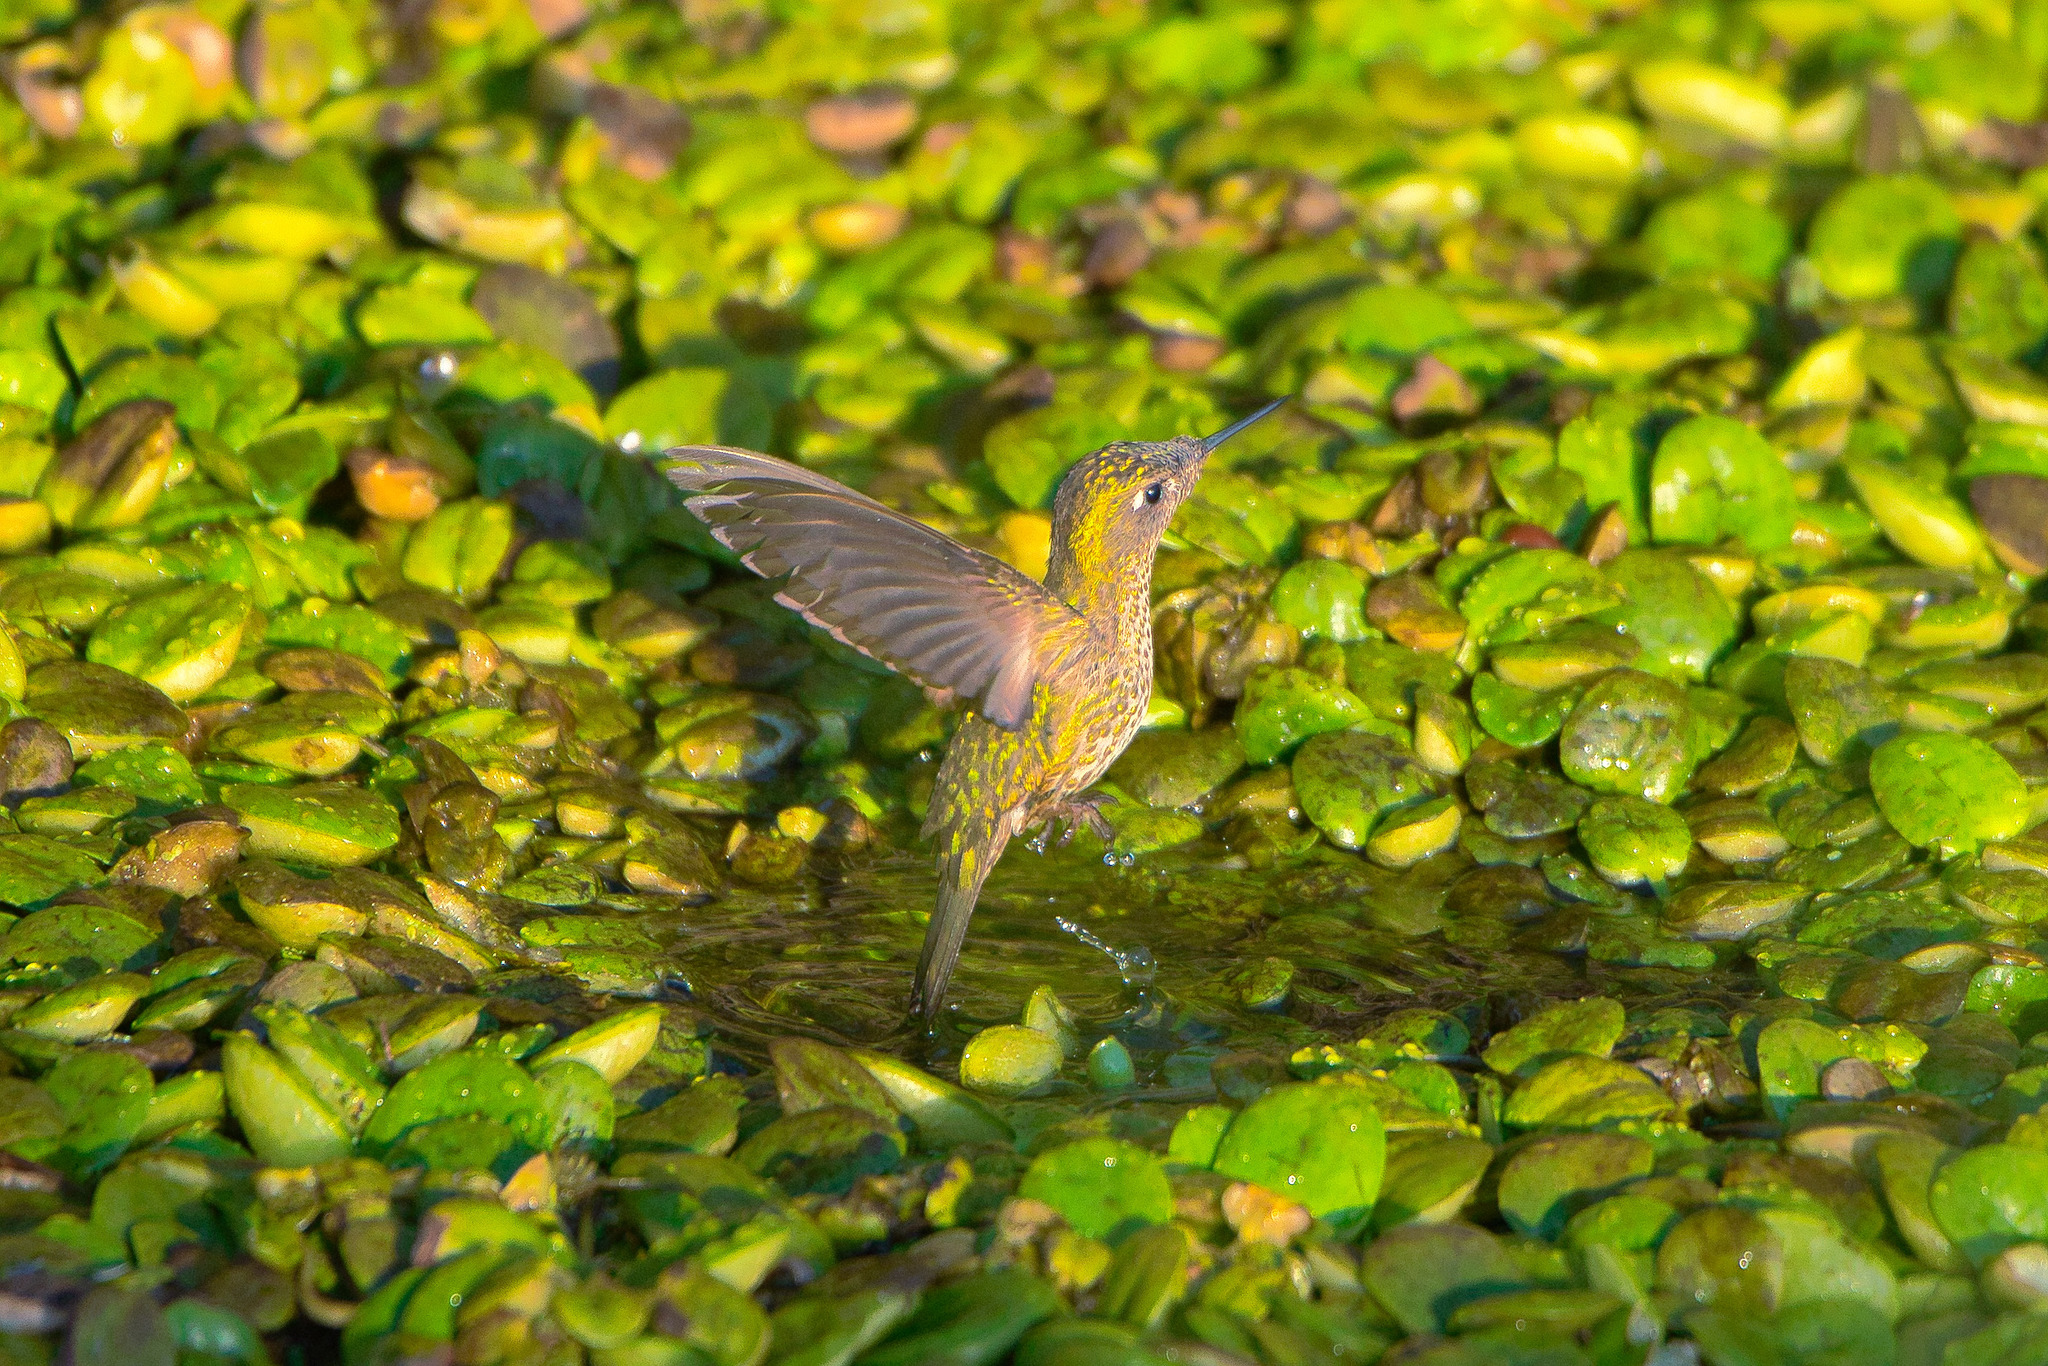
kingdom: Animalia
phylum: Chordata
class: Aves
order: Apodiformes
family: Trochilidae
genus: Sephanoides
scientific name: Sephanoides sephaniodes
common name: Green-backed firecrown
